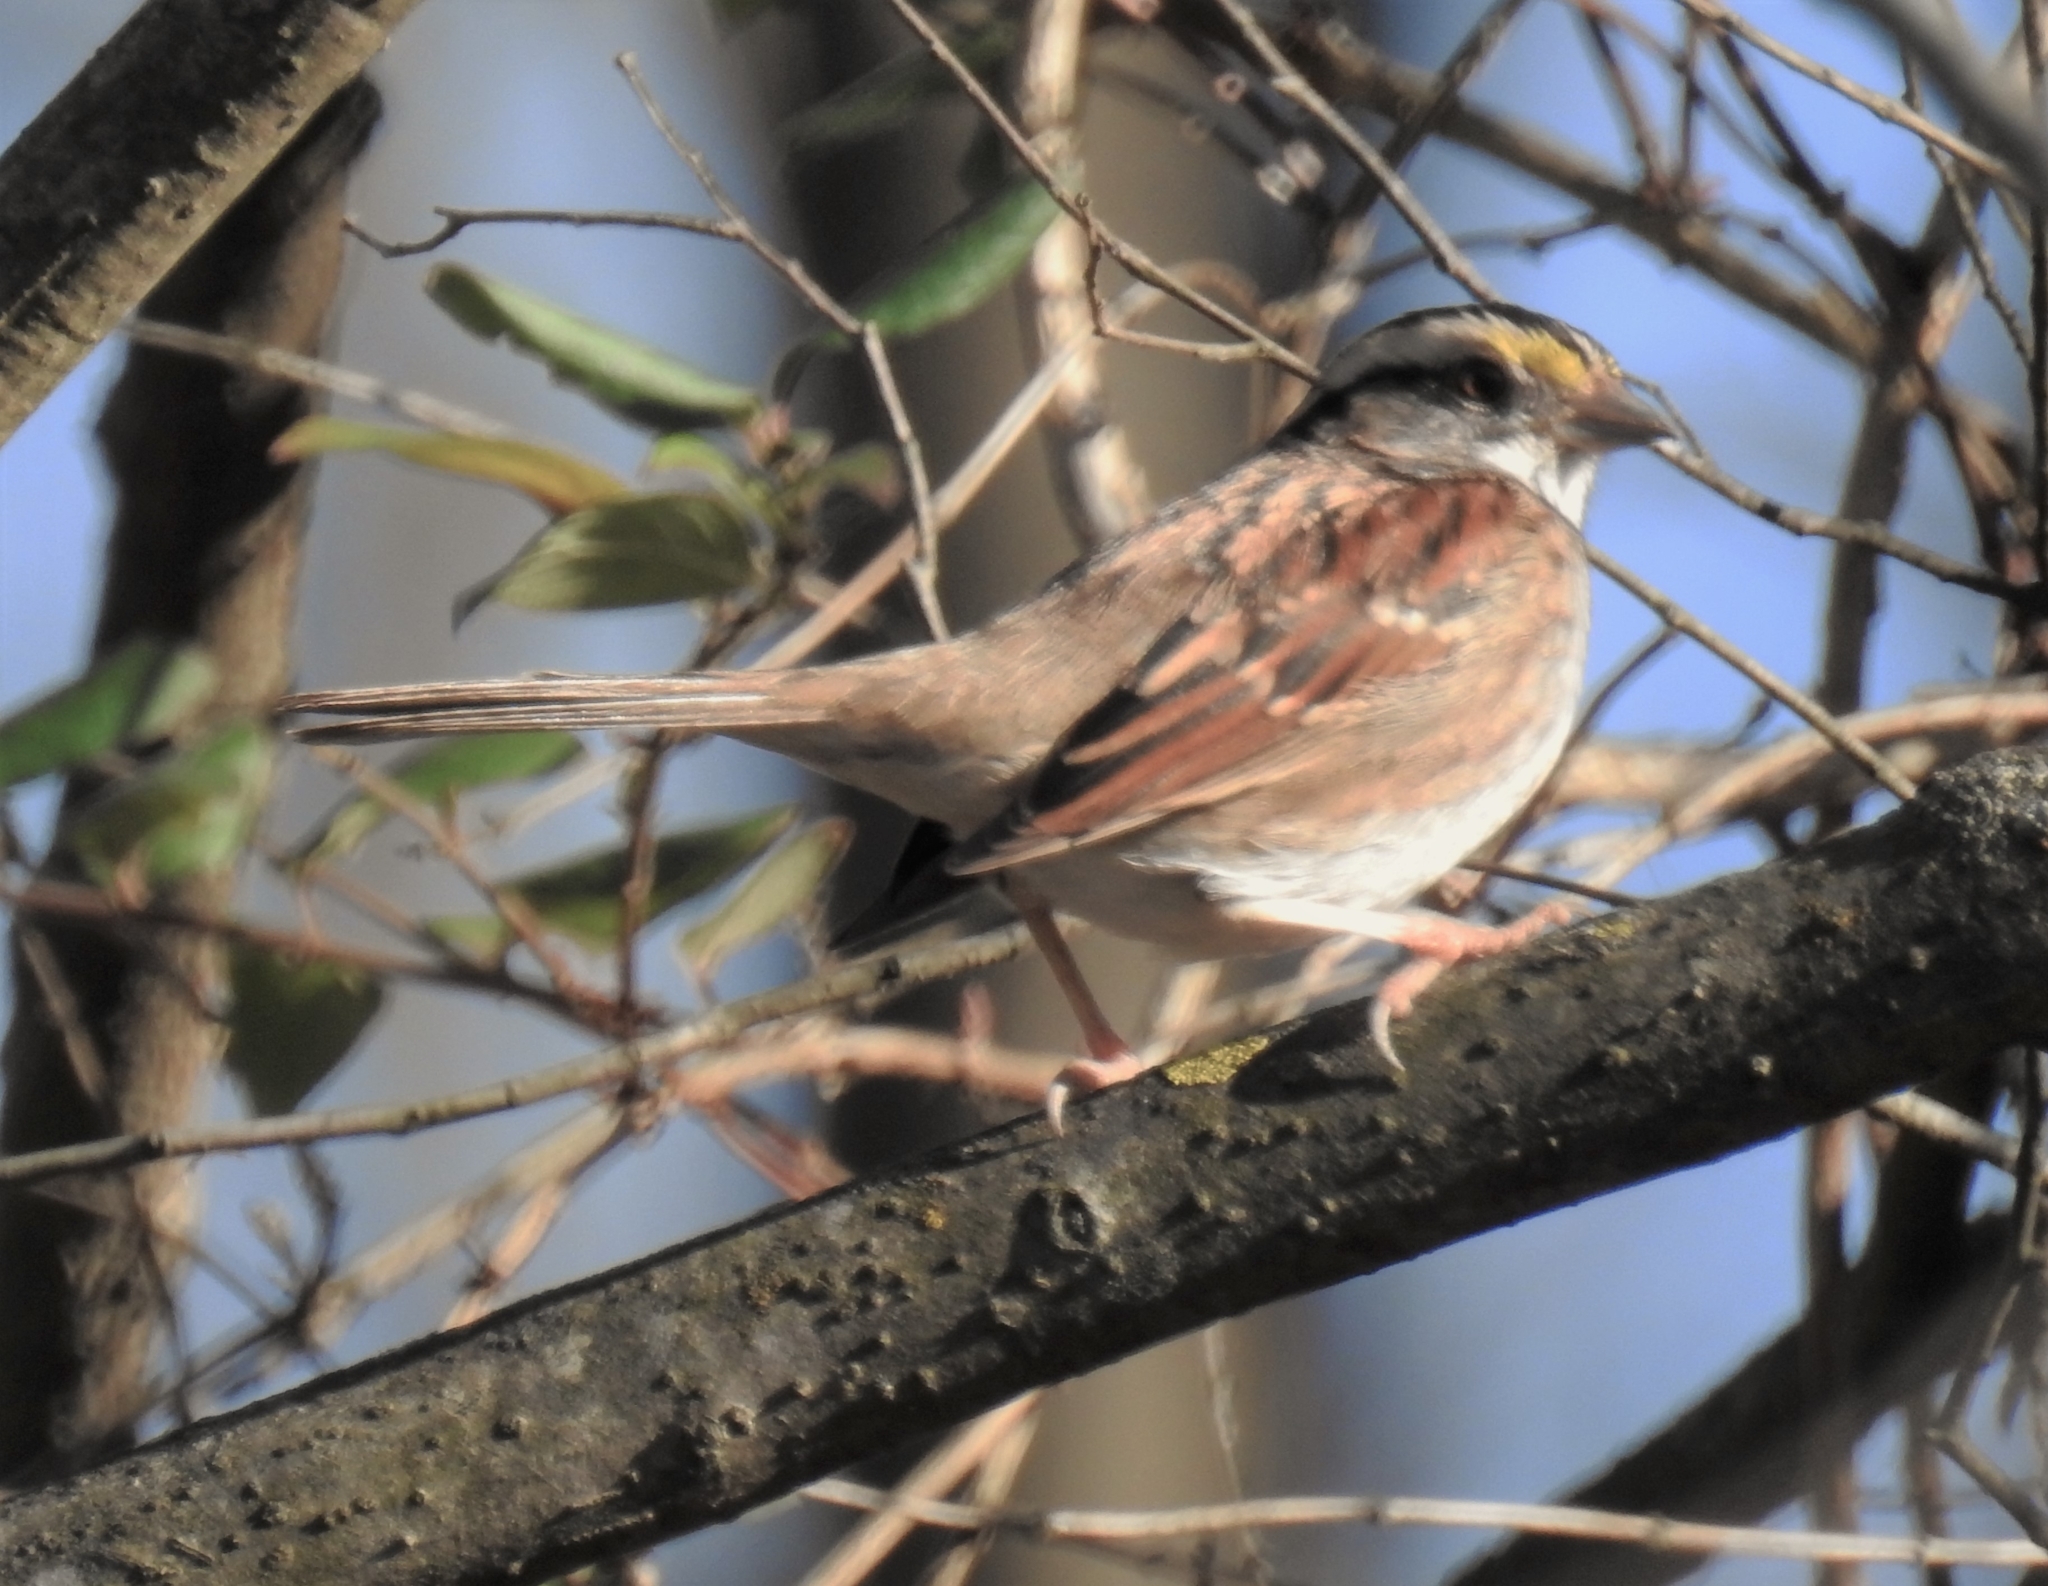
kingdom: Animalia
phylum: Chordata
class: Aves
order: Passeriformes
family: Passerellidae
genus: Zonotrichia
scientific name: Zonotrichia albicollis
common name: White-throated sparrow
